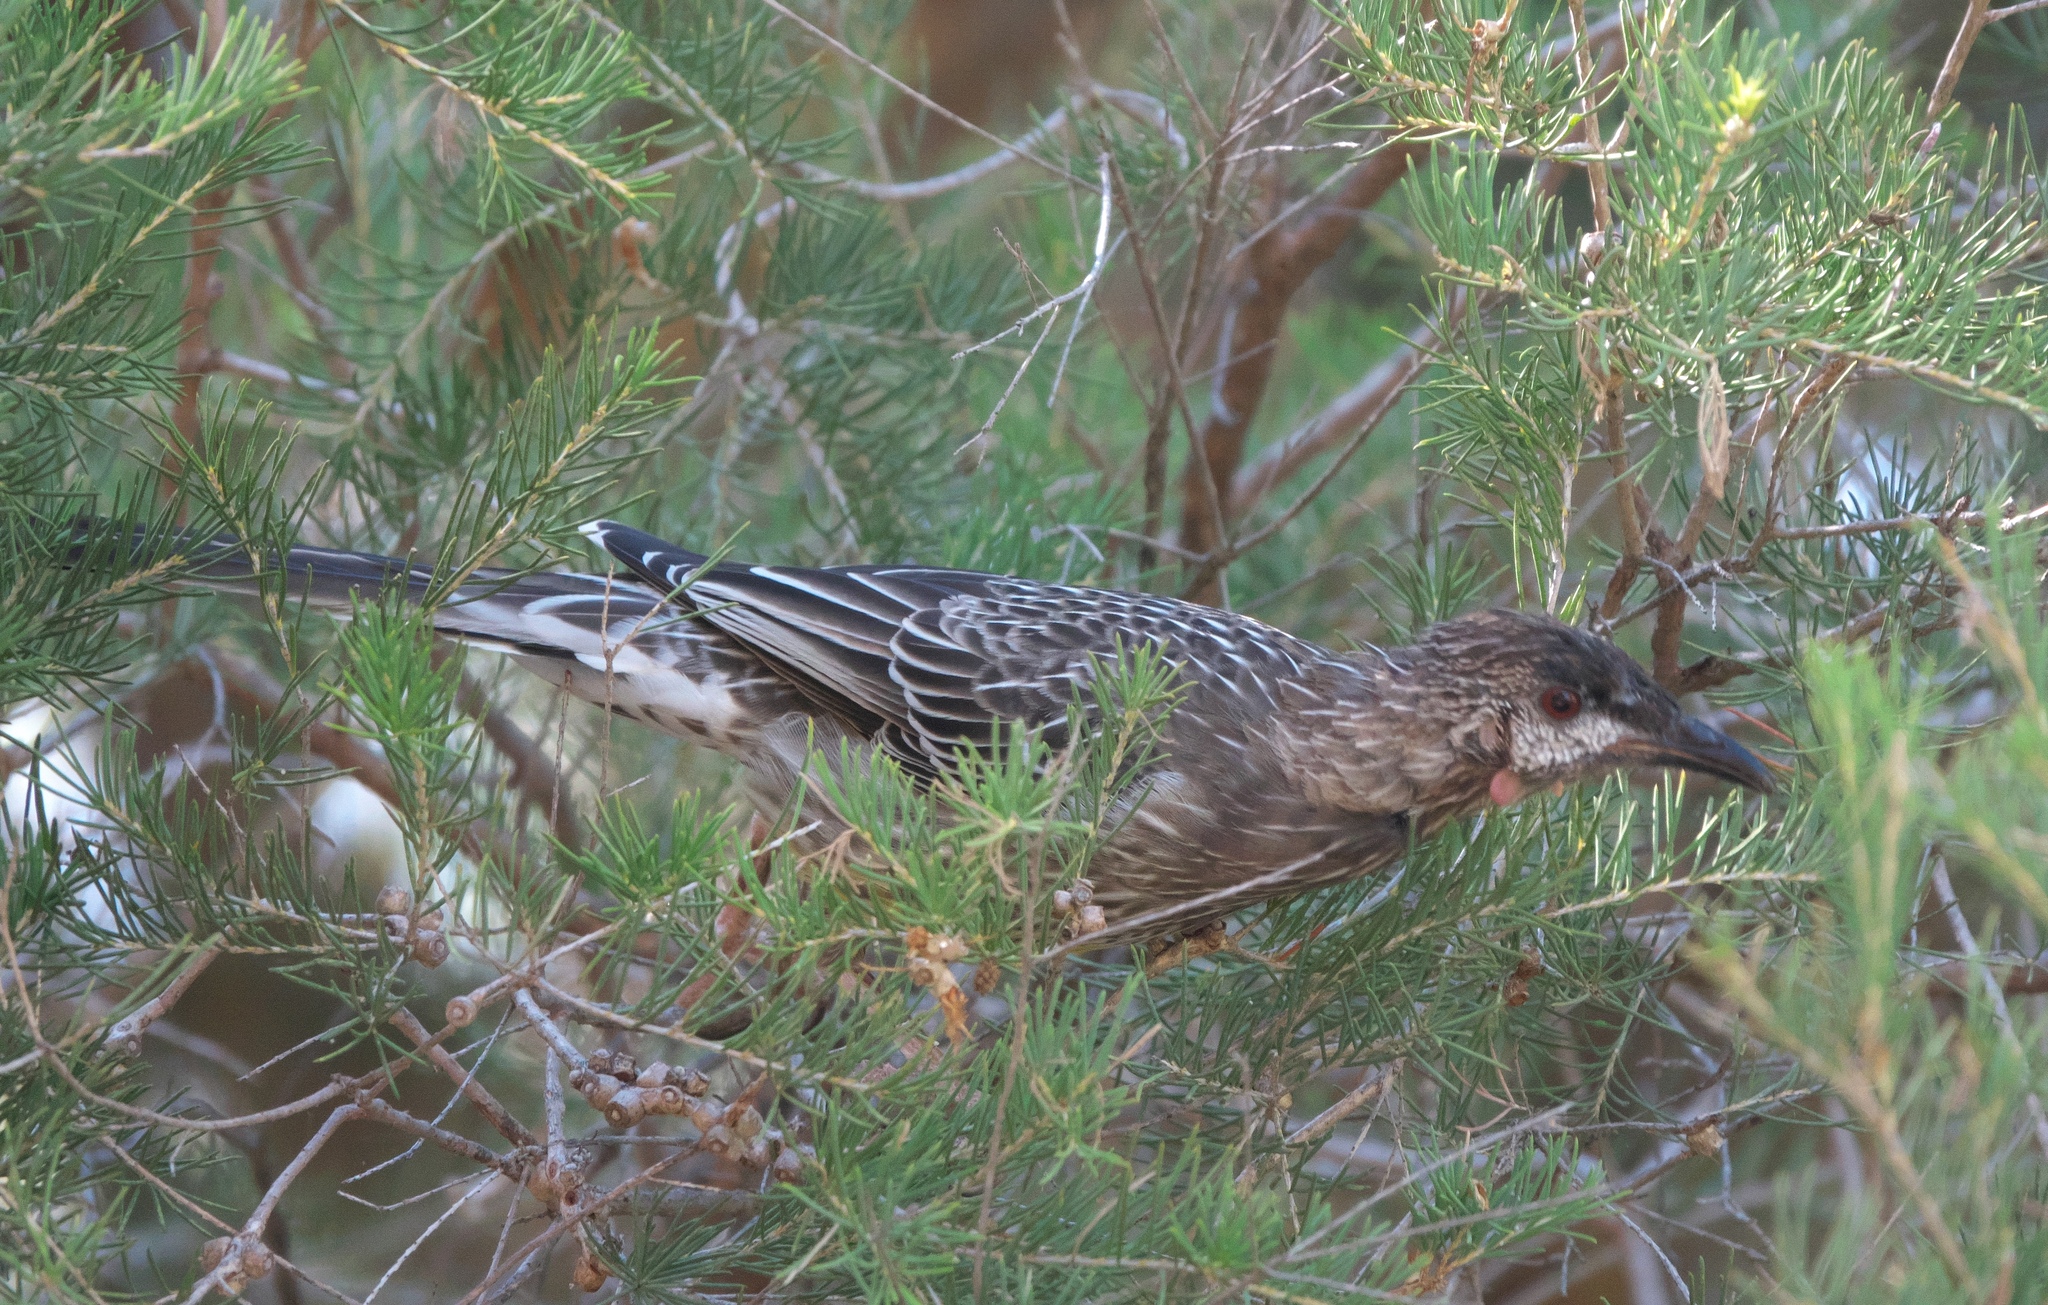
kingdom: Animalia
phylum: Chordata
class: Aves
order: Passeriformes
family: Meliphagidae
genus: Anthochaera
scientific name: Anthochaera carunculata
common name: Red wattlebird
